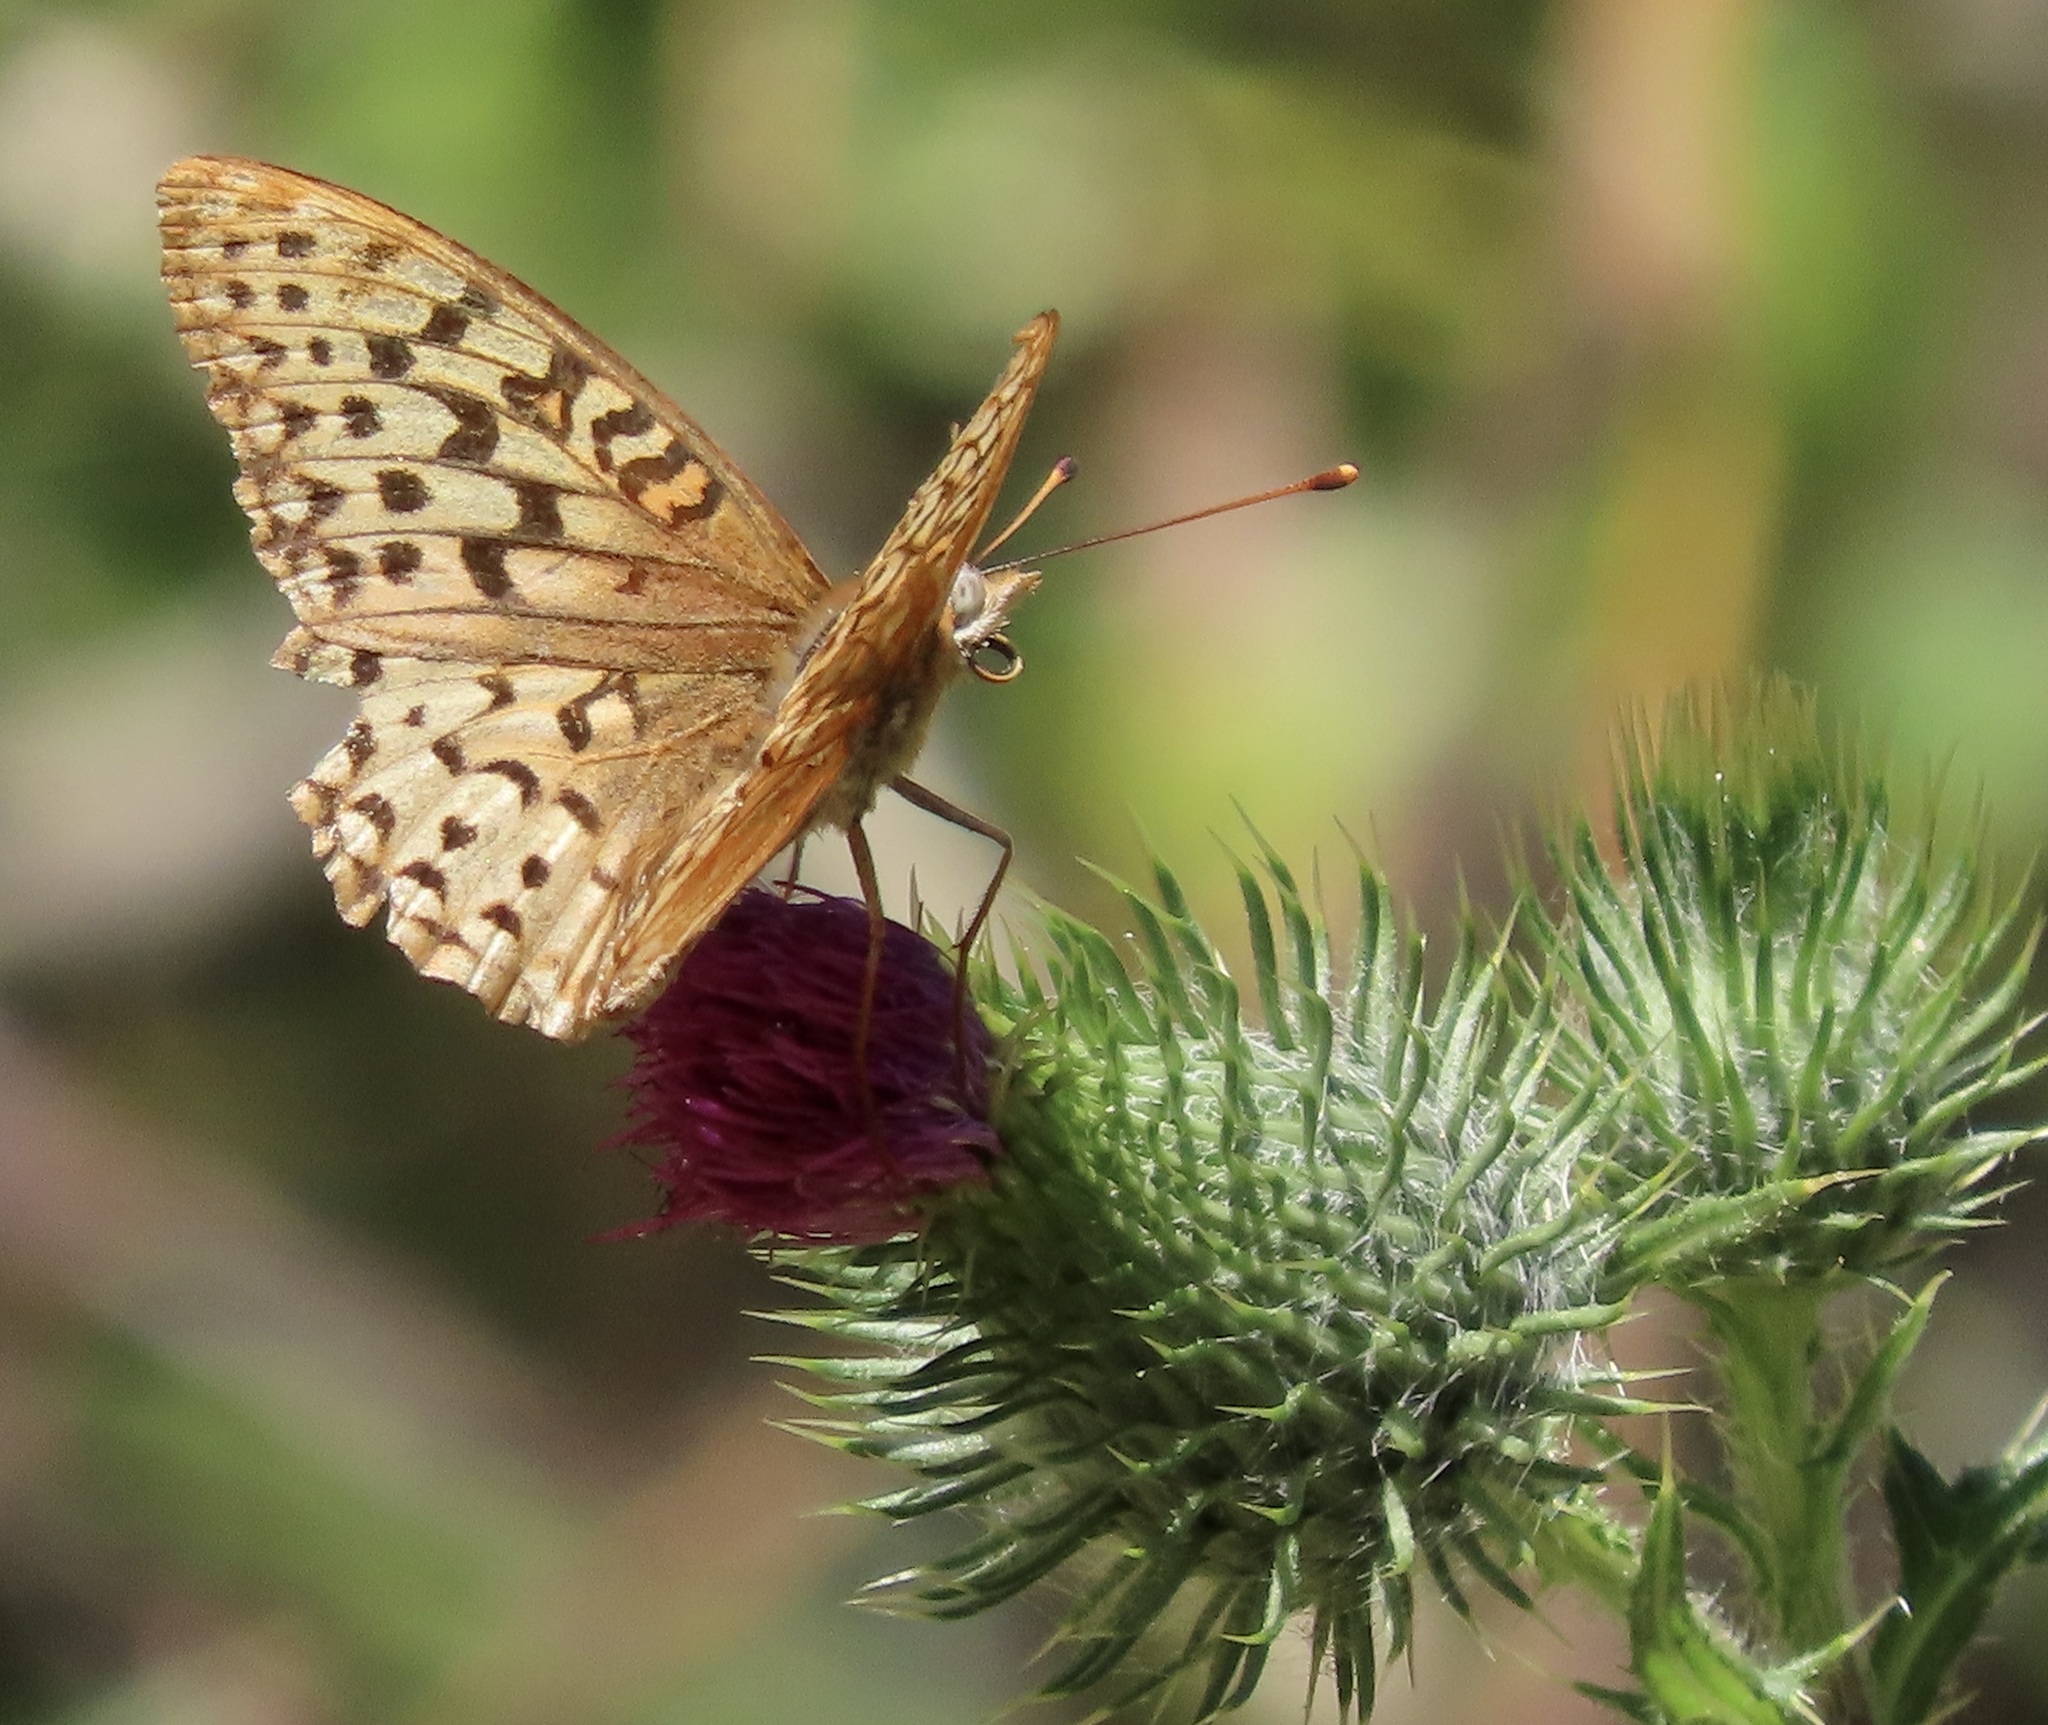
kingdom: Animalia
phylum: Arthropoda
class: Insecta
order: Lepidoptera
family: Nymphalidae
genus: Argynnis
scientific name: Argynnis coronis
